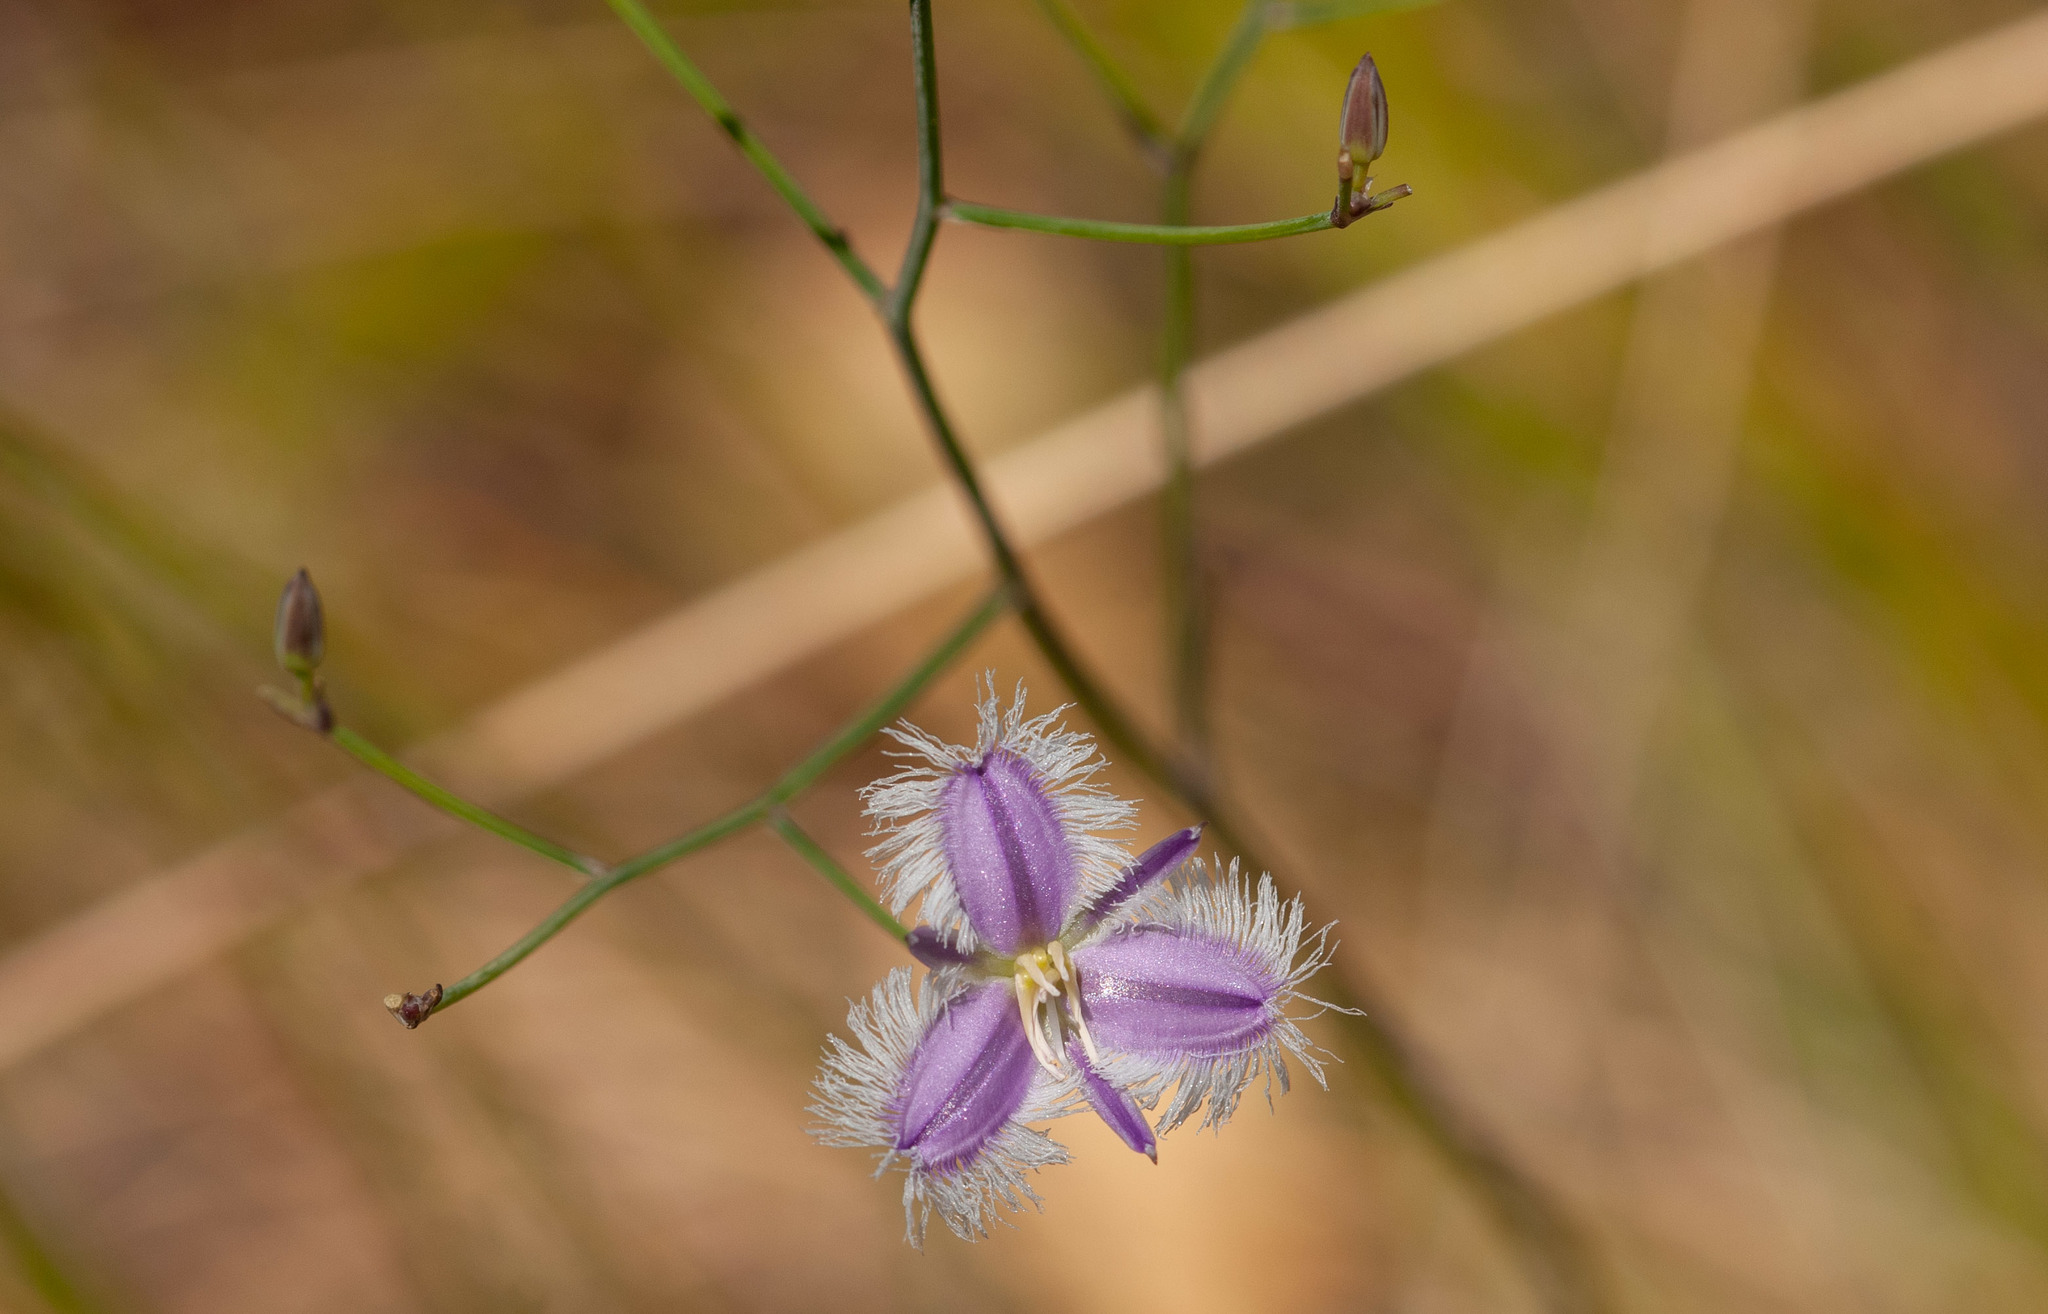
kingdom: Plantae
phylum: Tracheophyta
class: Liliopsida
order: Asparagales
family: Asparagaceae
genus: Thysanotus
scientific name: Thysanotus tuberosus
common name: Common fringed-lily
